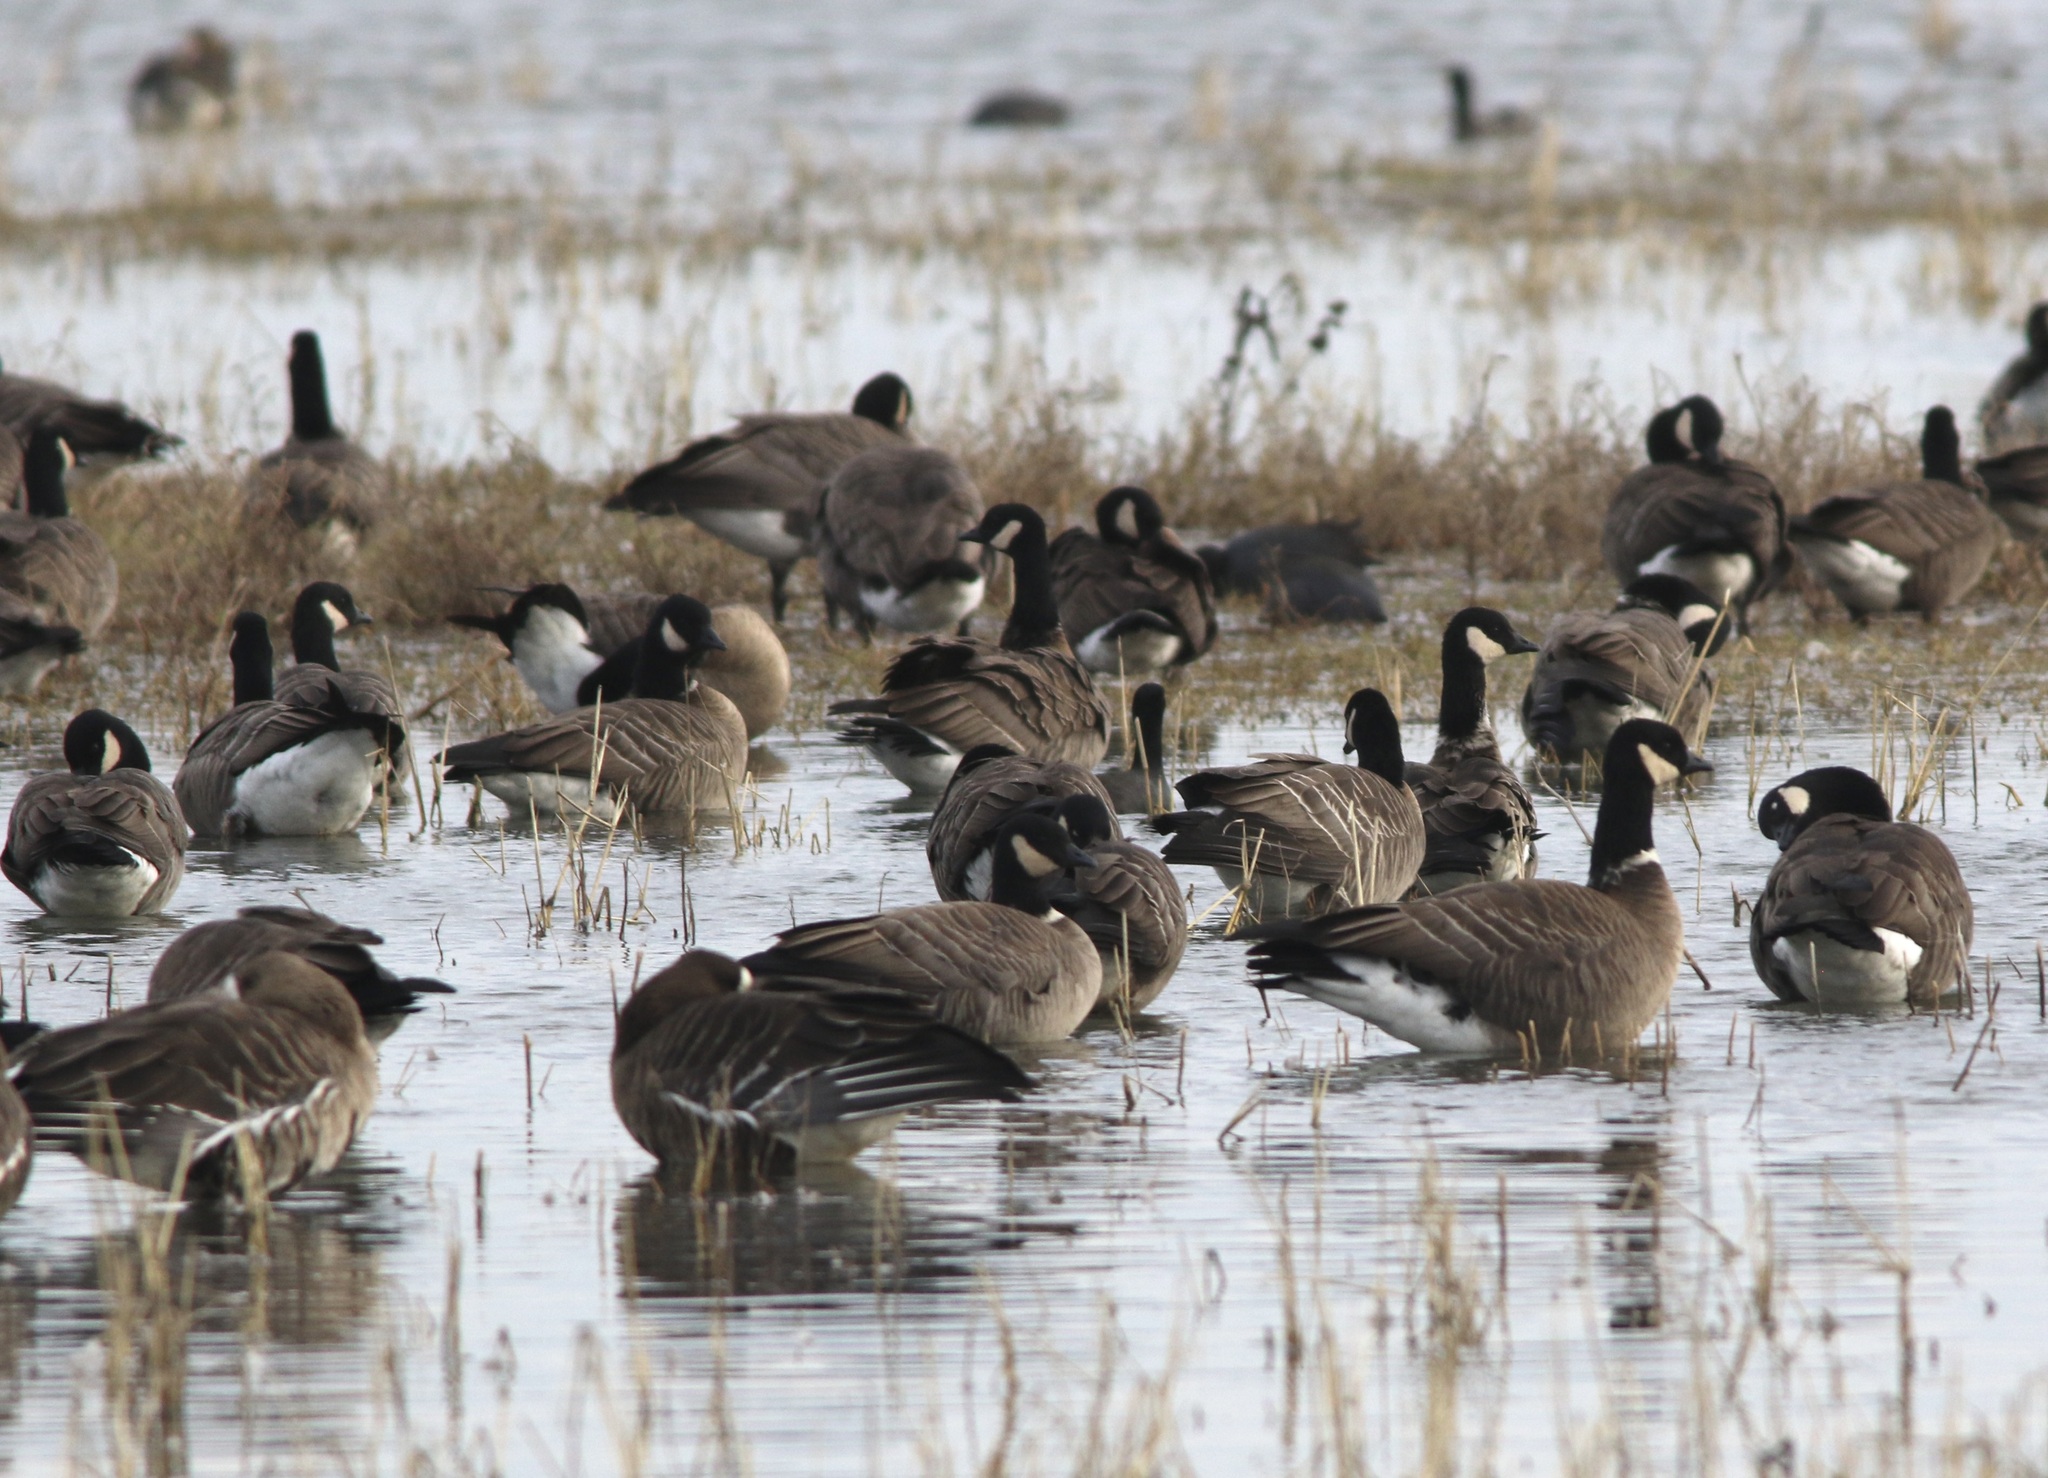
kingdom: Animalia
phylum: Chordata
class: Aves
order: Anseriformes
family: Anatidae
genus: Branta
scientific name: Branta hutchinsii
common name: Cackling goose
